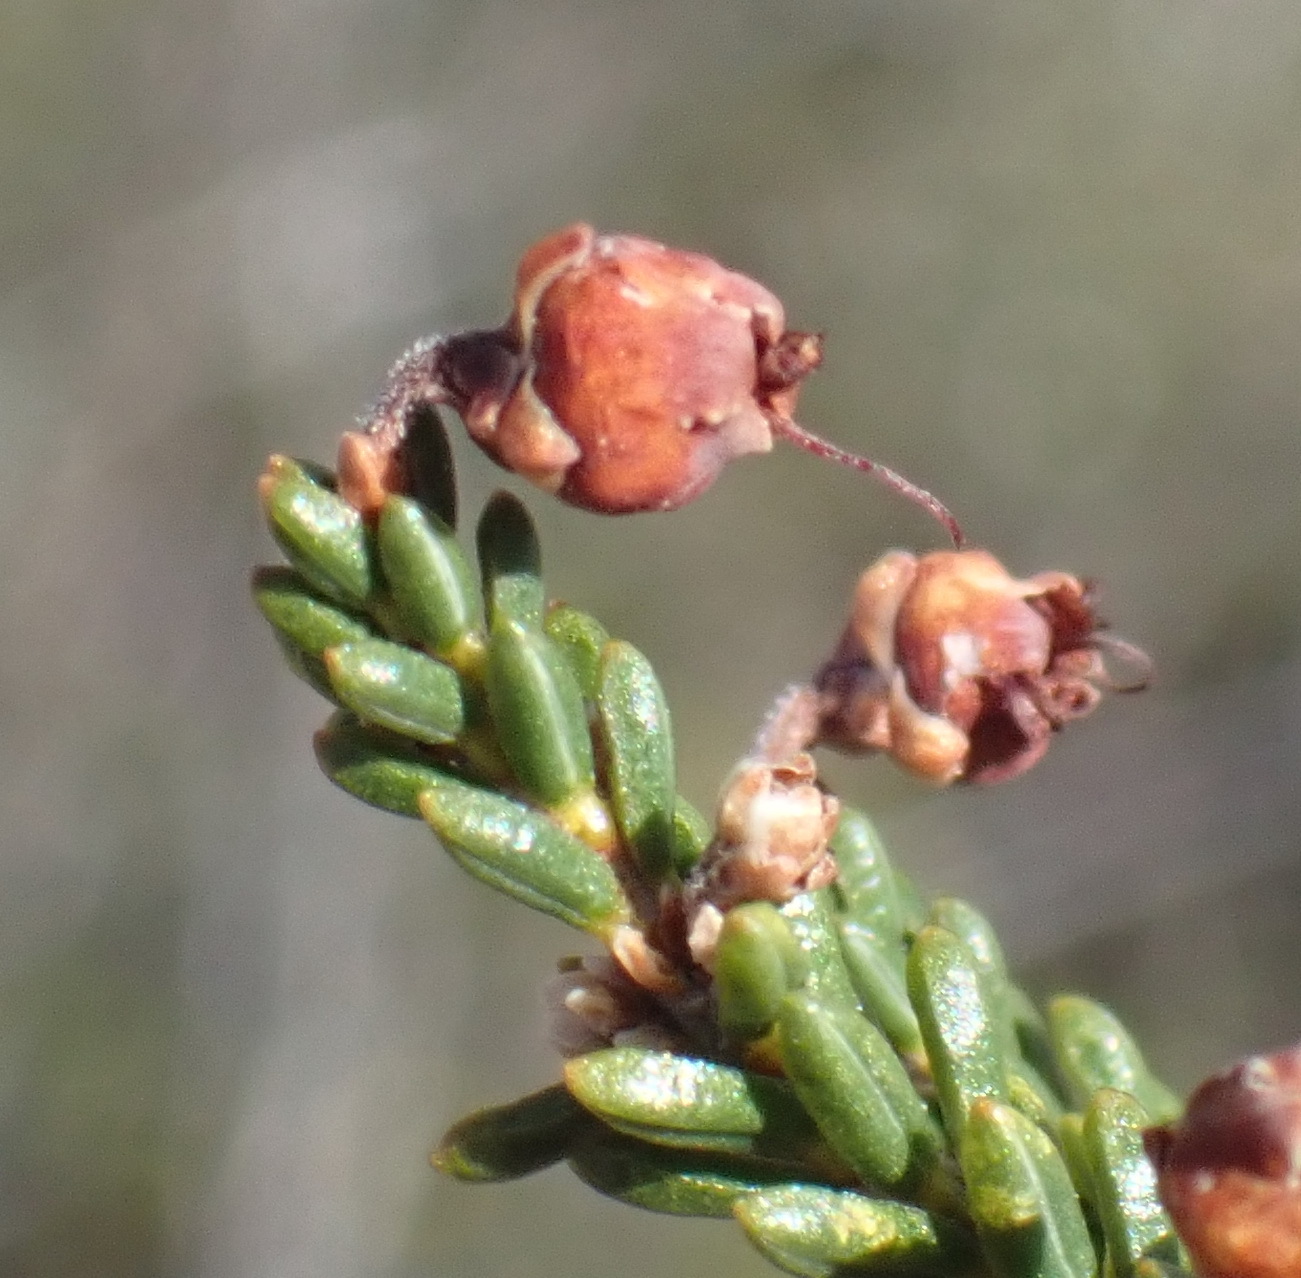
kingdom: Plantae
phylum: Tracheophyta
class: Magnoliopsida
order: Ericales
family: Ericaceae
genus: Erica
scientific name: Erica petraea
